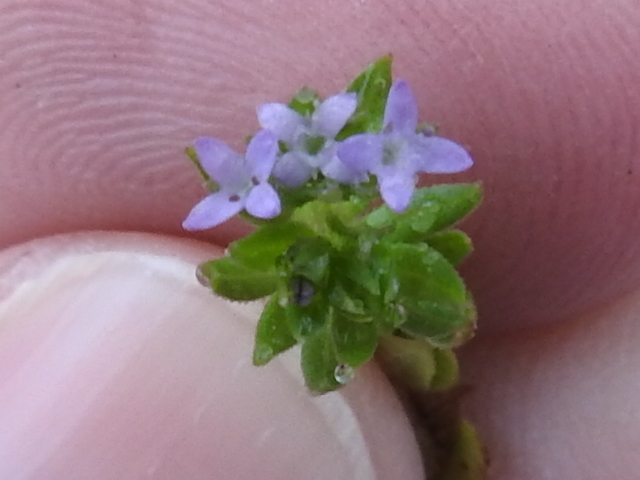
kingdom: Plantae
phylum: Tracheophyta
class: Magnoliopsida
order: Gentianales
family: Rubiaceae
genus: Sherardia
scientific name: Sherardia arvensis
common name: Field madder
